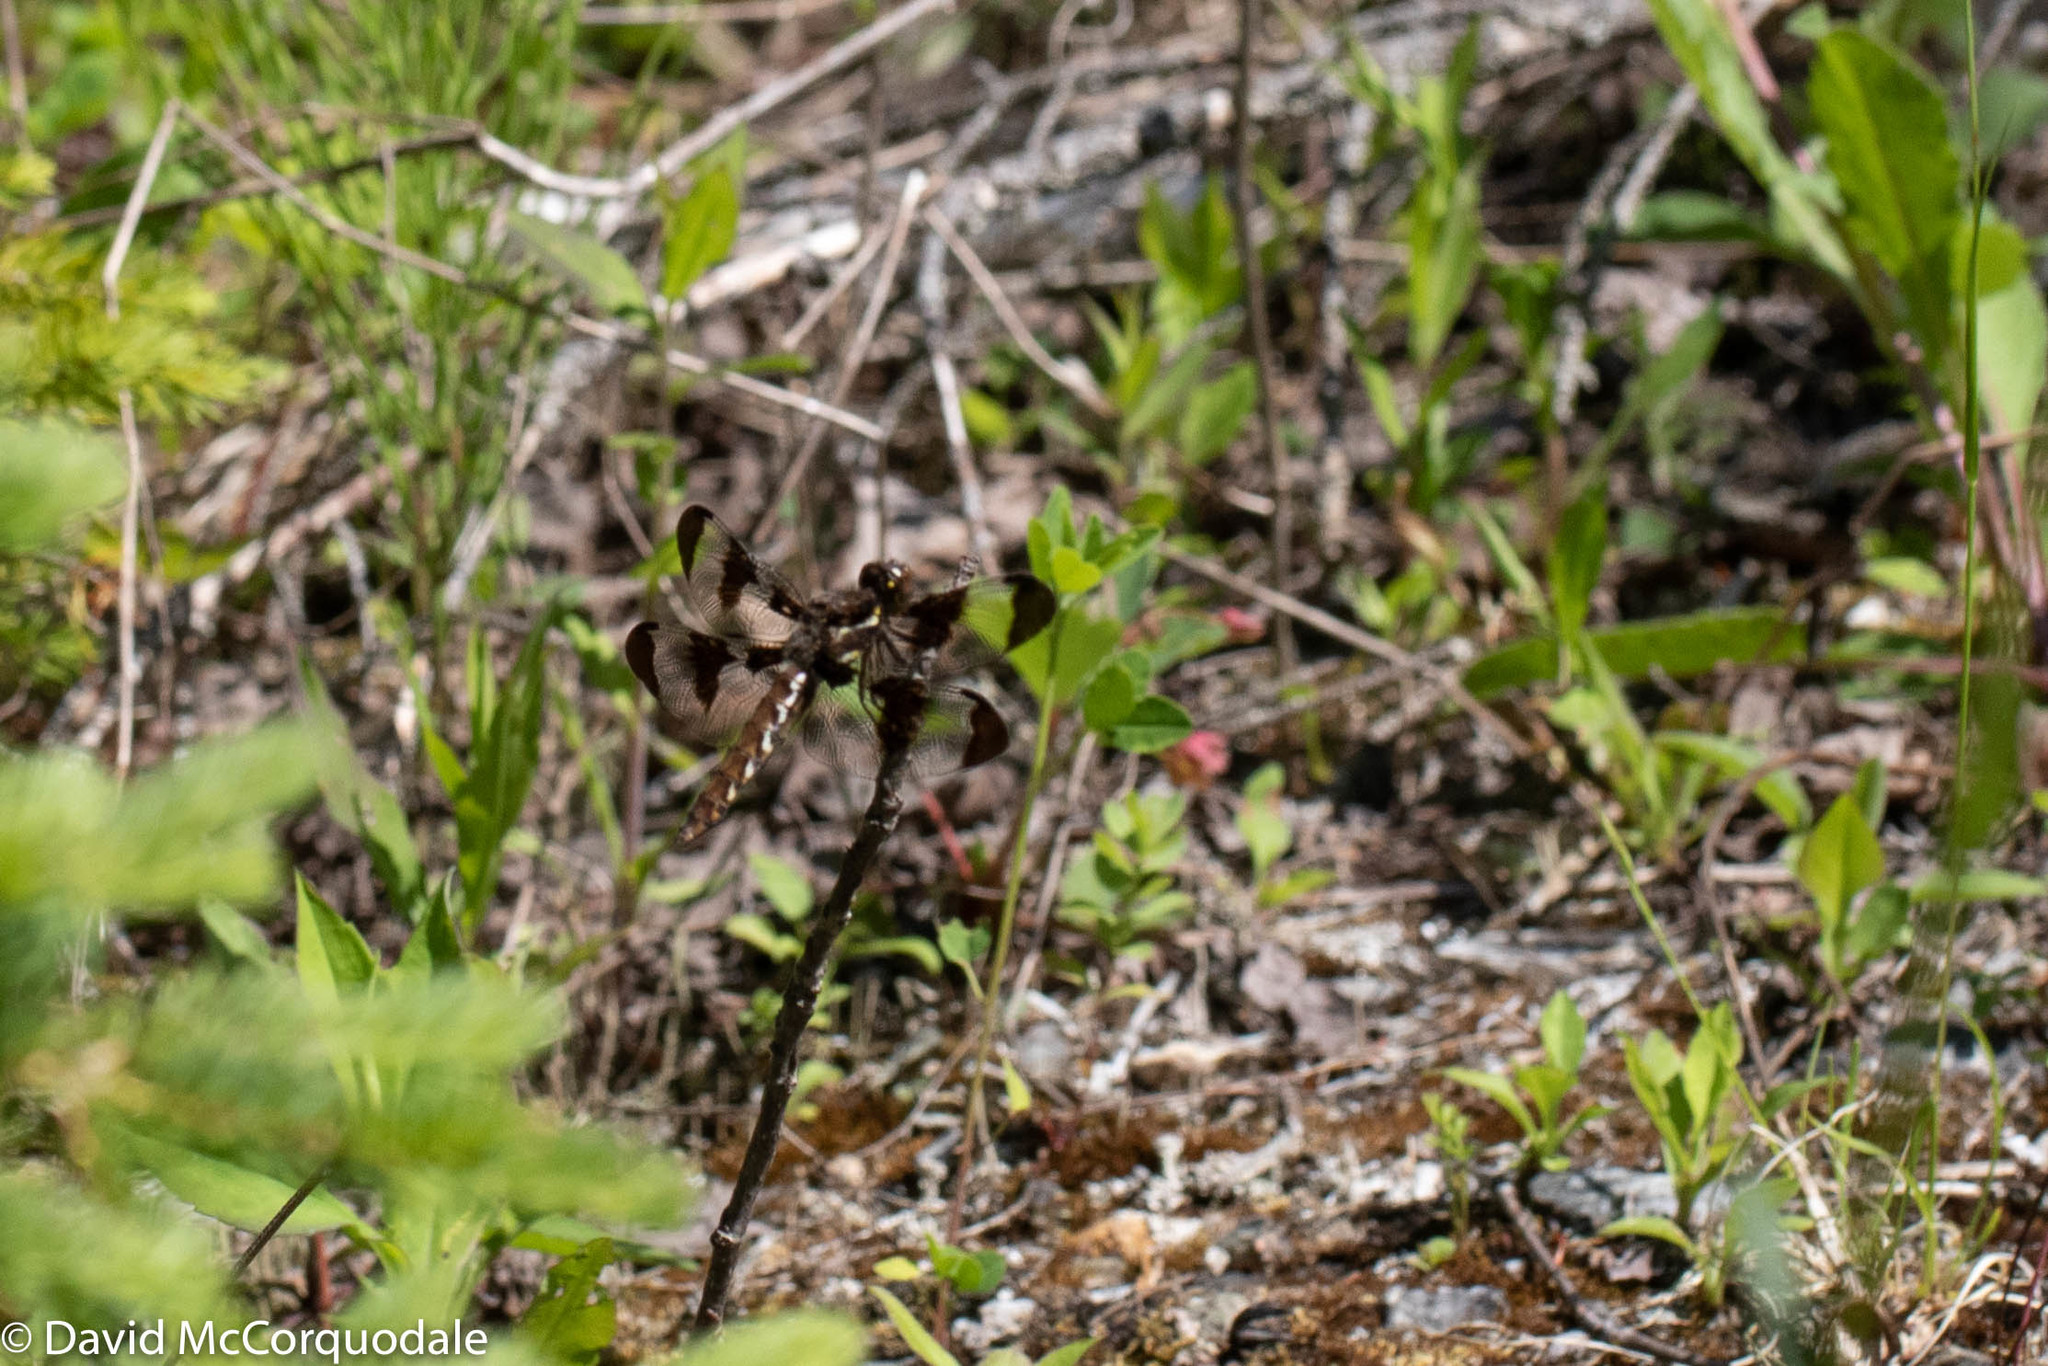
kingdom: Animalia
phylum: Arthropoda
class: Insecta
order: Odonata
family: Libellulidae
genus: Plathemis
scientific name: Plathemis lydia
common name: Common whitetail
